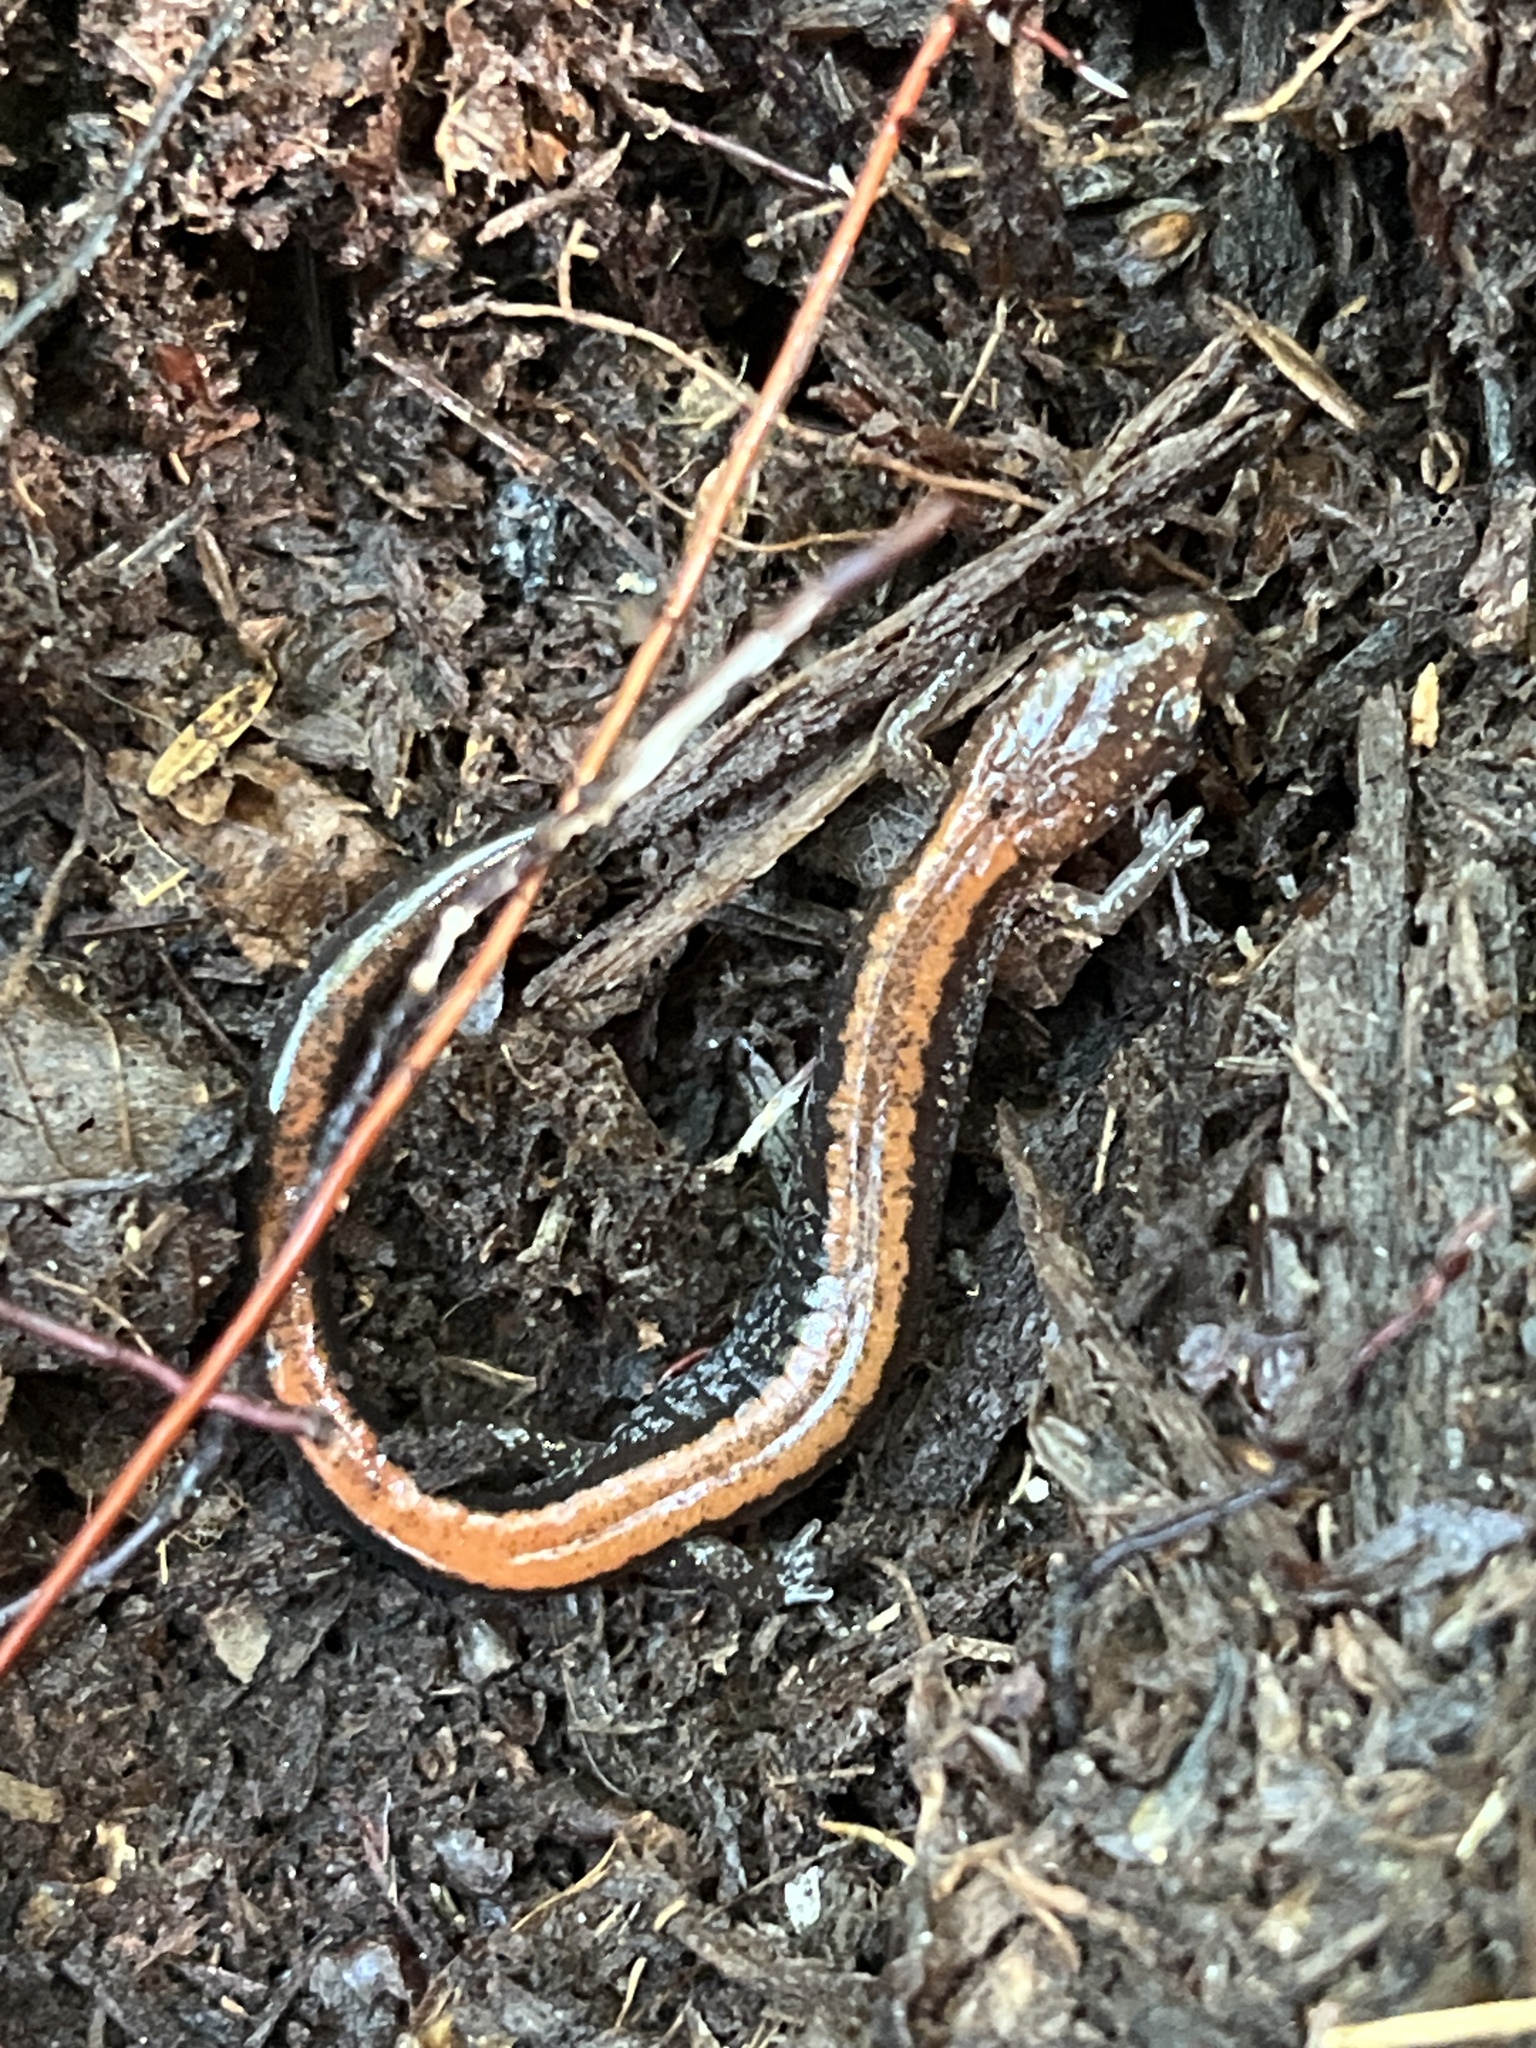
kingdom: Animalia
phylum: Chordata
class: Amphibia
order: Caudata
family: Plethodontidae
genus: Plethodon
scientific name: Plethodon cinereus
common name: Redback salamander
